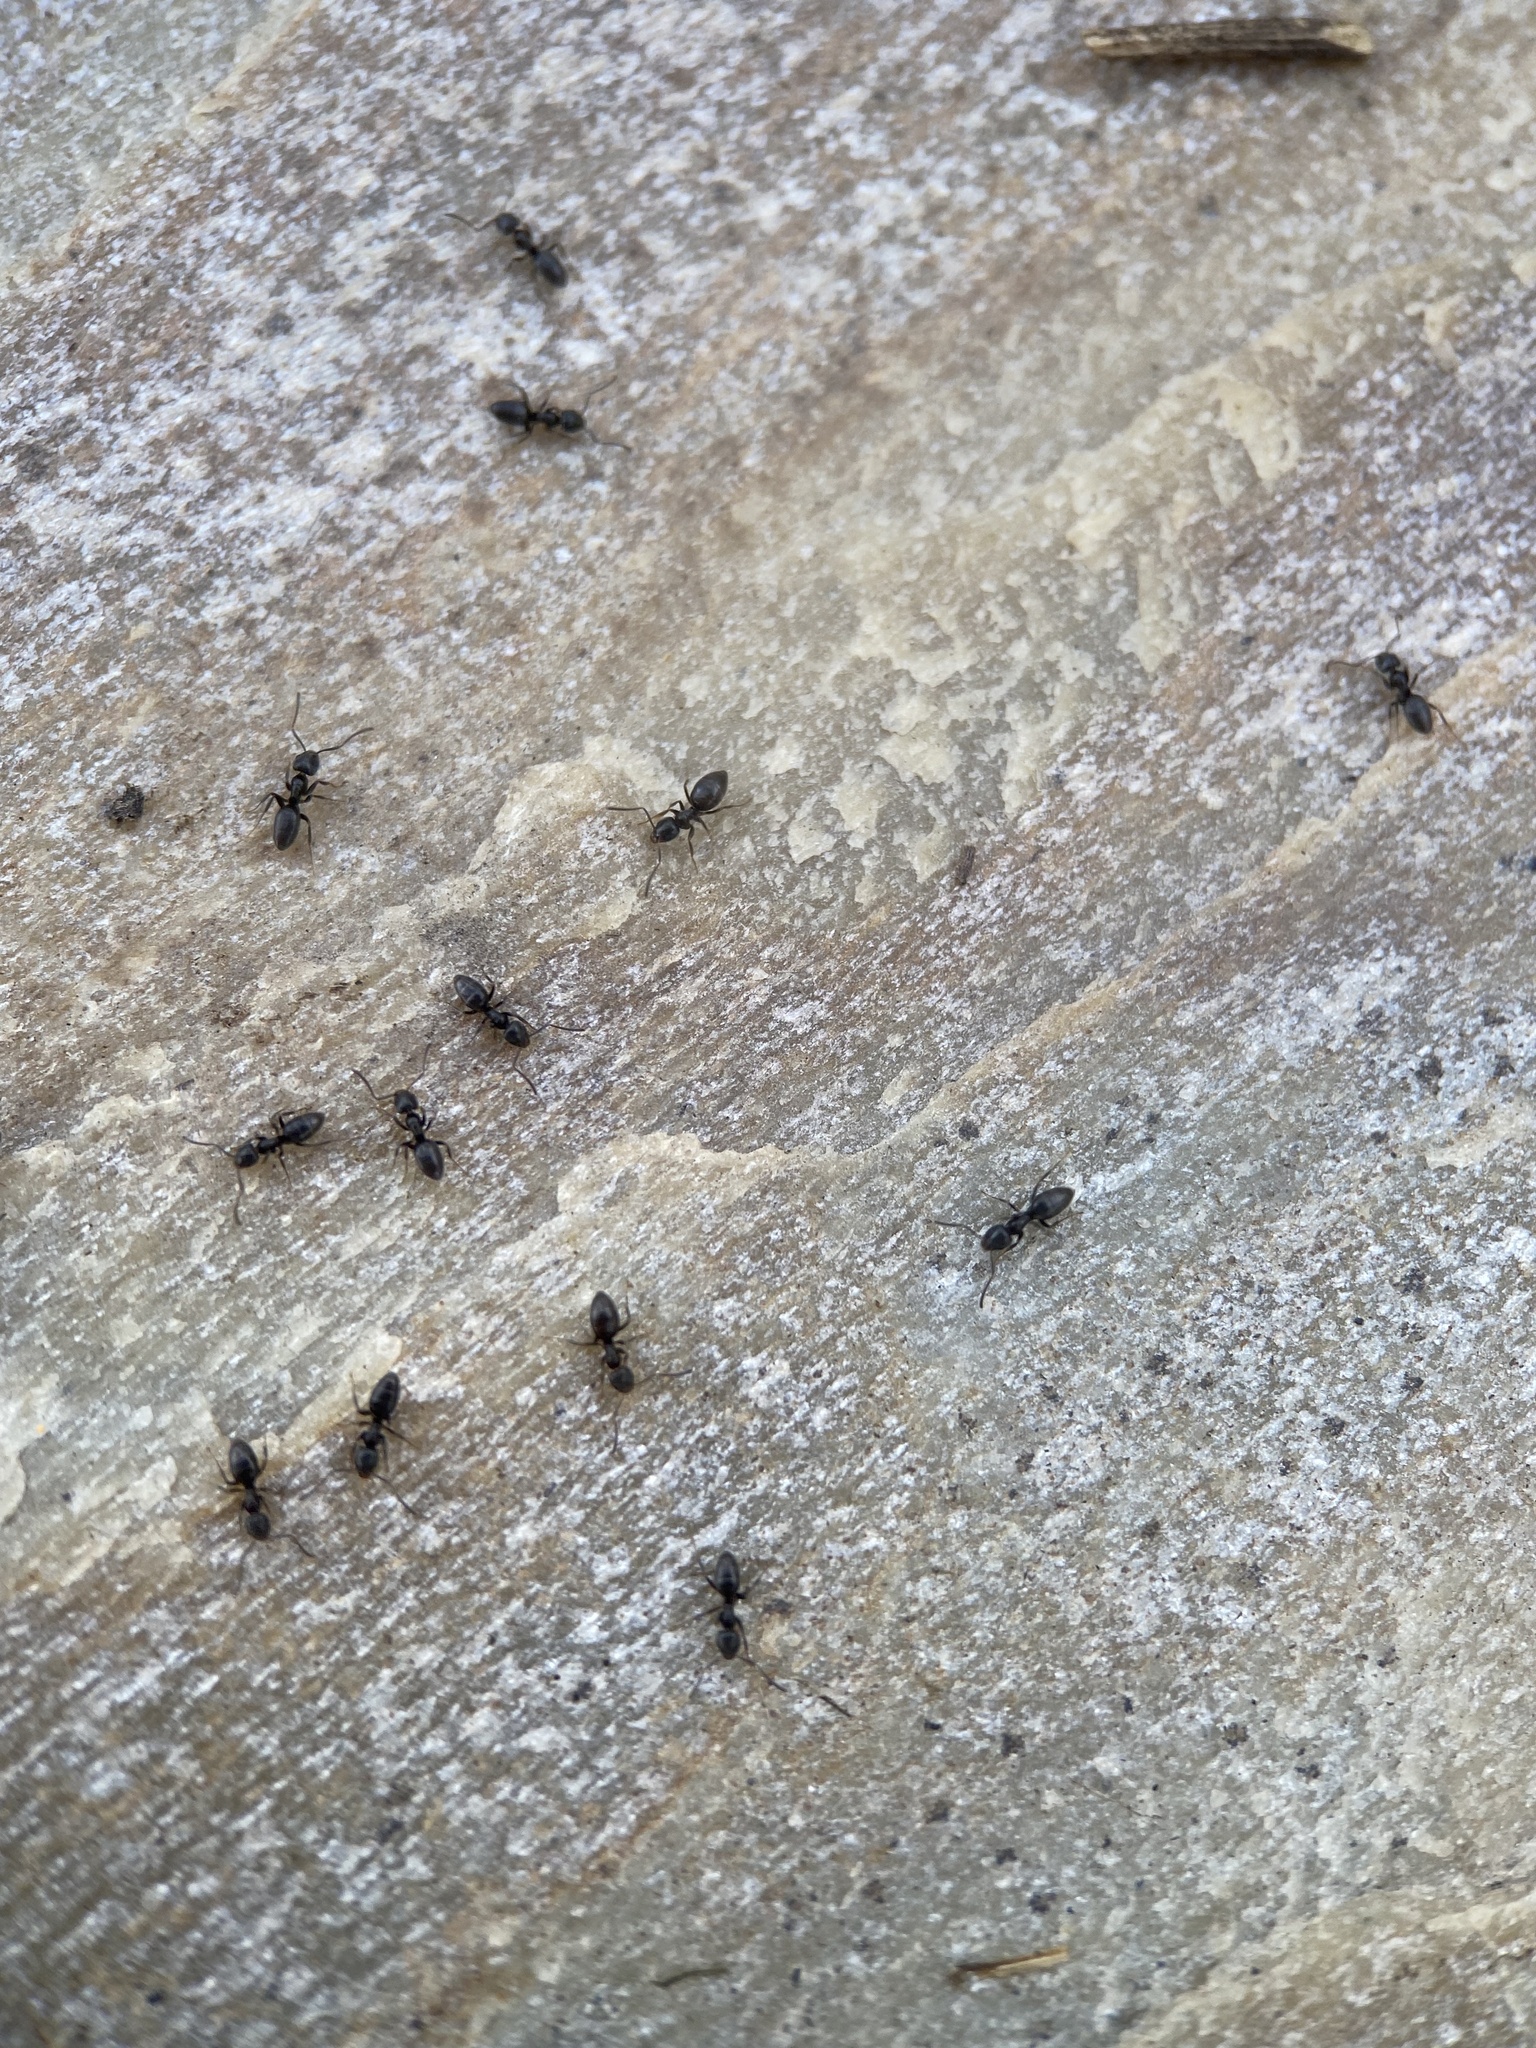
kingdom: Animalia
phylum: Arthropoda
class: Insecta
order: Hymenoptera
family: Formicidae
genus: Tapinoma
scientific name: Tapinoma sessile
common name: Odorous house ant
